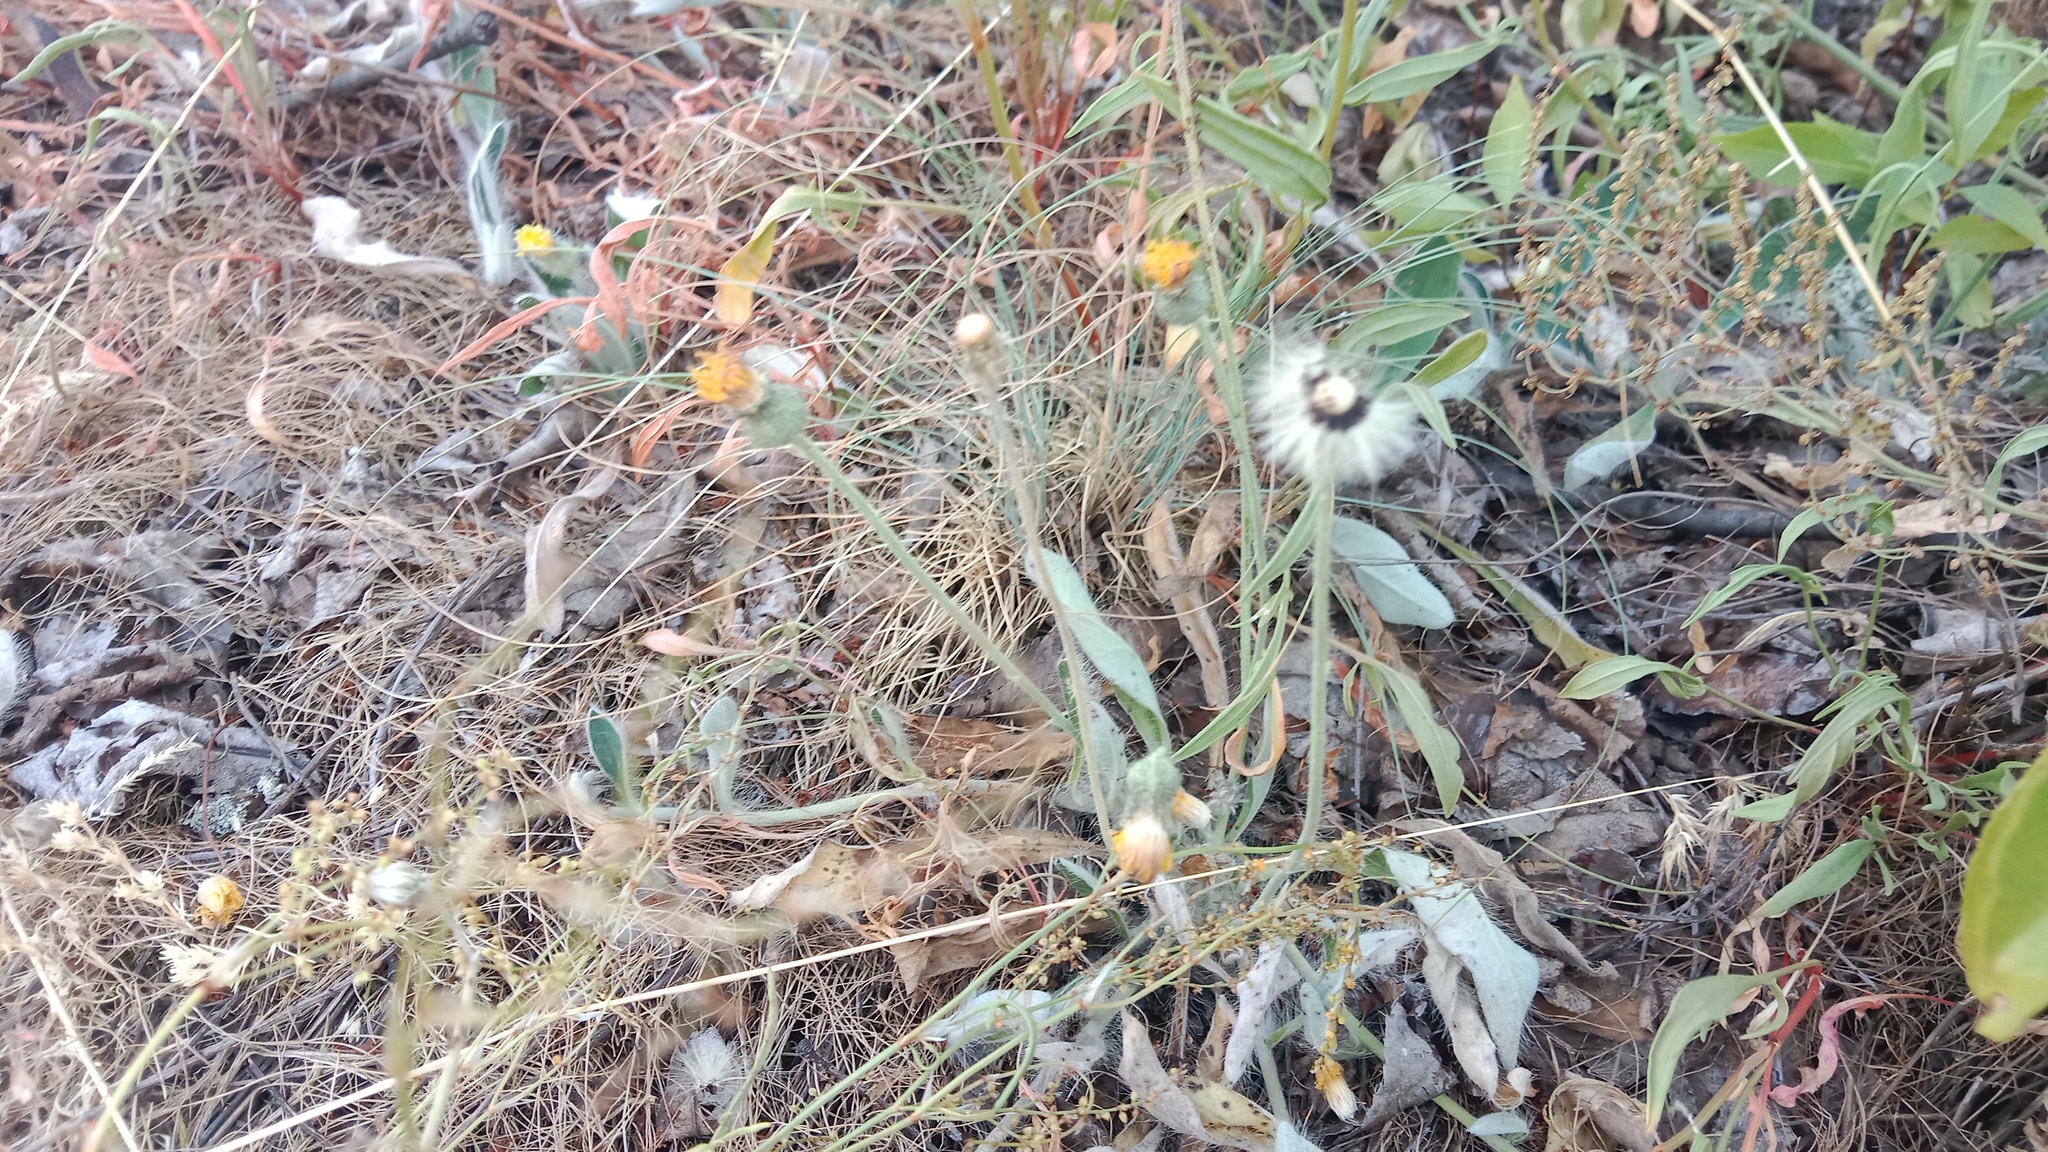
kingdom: Plantae
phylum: Tracheophyta
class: Magnoliopsida
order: Asterales
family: Asteraceae
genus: Pilosella
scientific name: Pilosella officinarum
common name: Mouse-ear hawkweed
